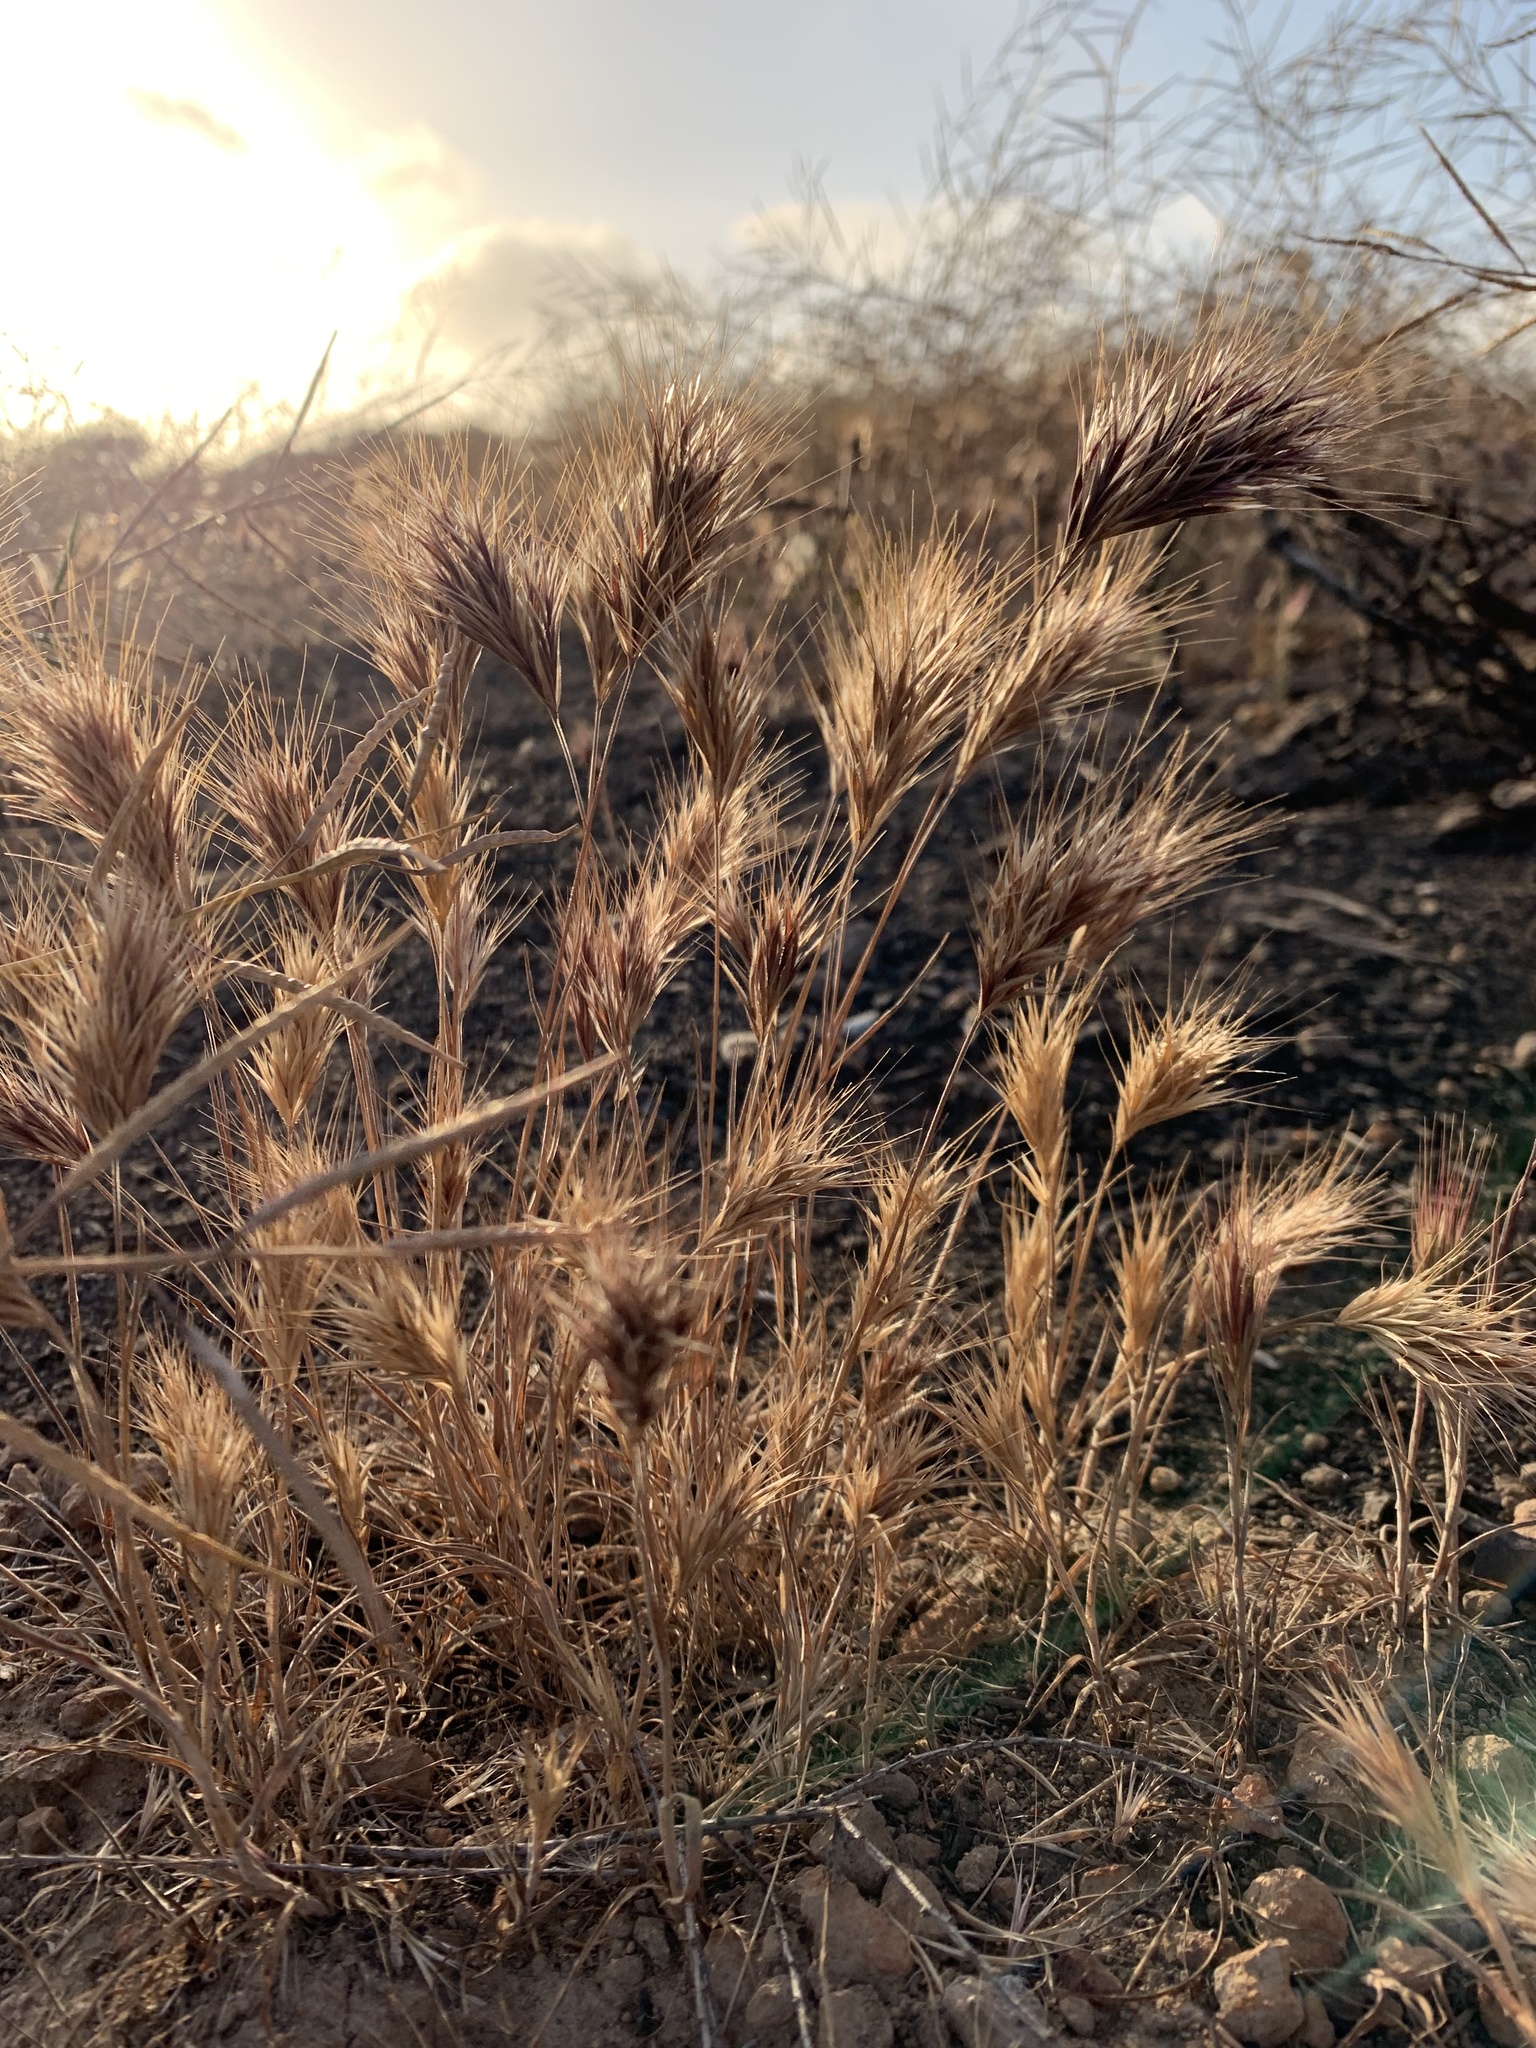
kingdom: Plantae
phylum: Tracheophyta
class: Liliopsida
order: Poales
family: Poaceae
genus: Bromus
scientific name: Bromus rubens
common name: Red brome
